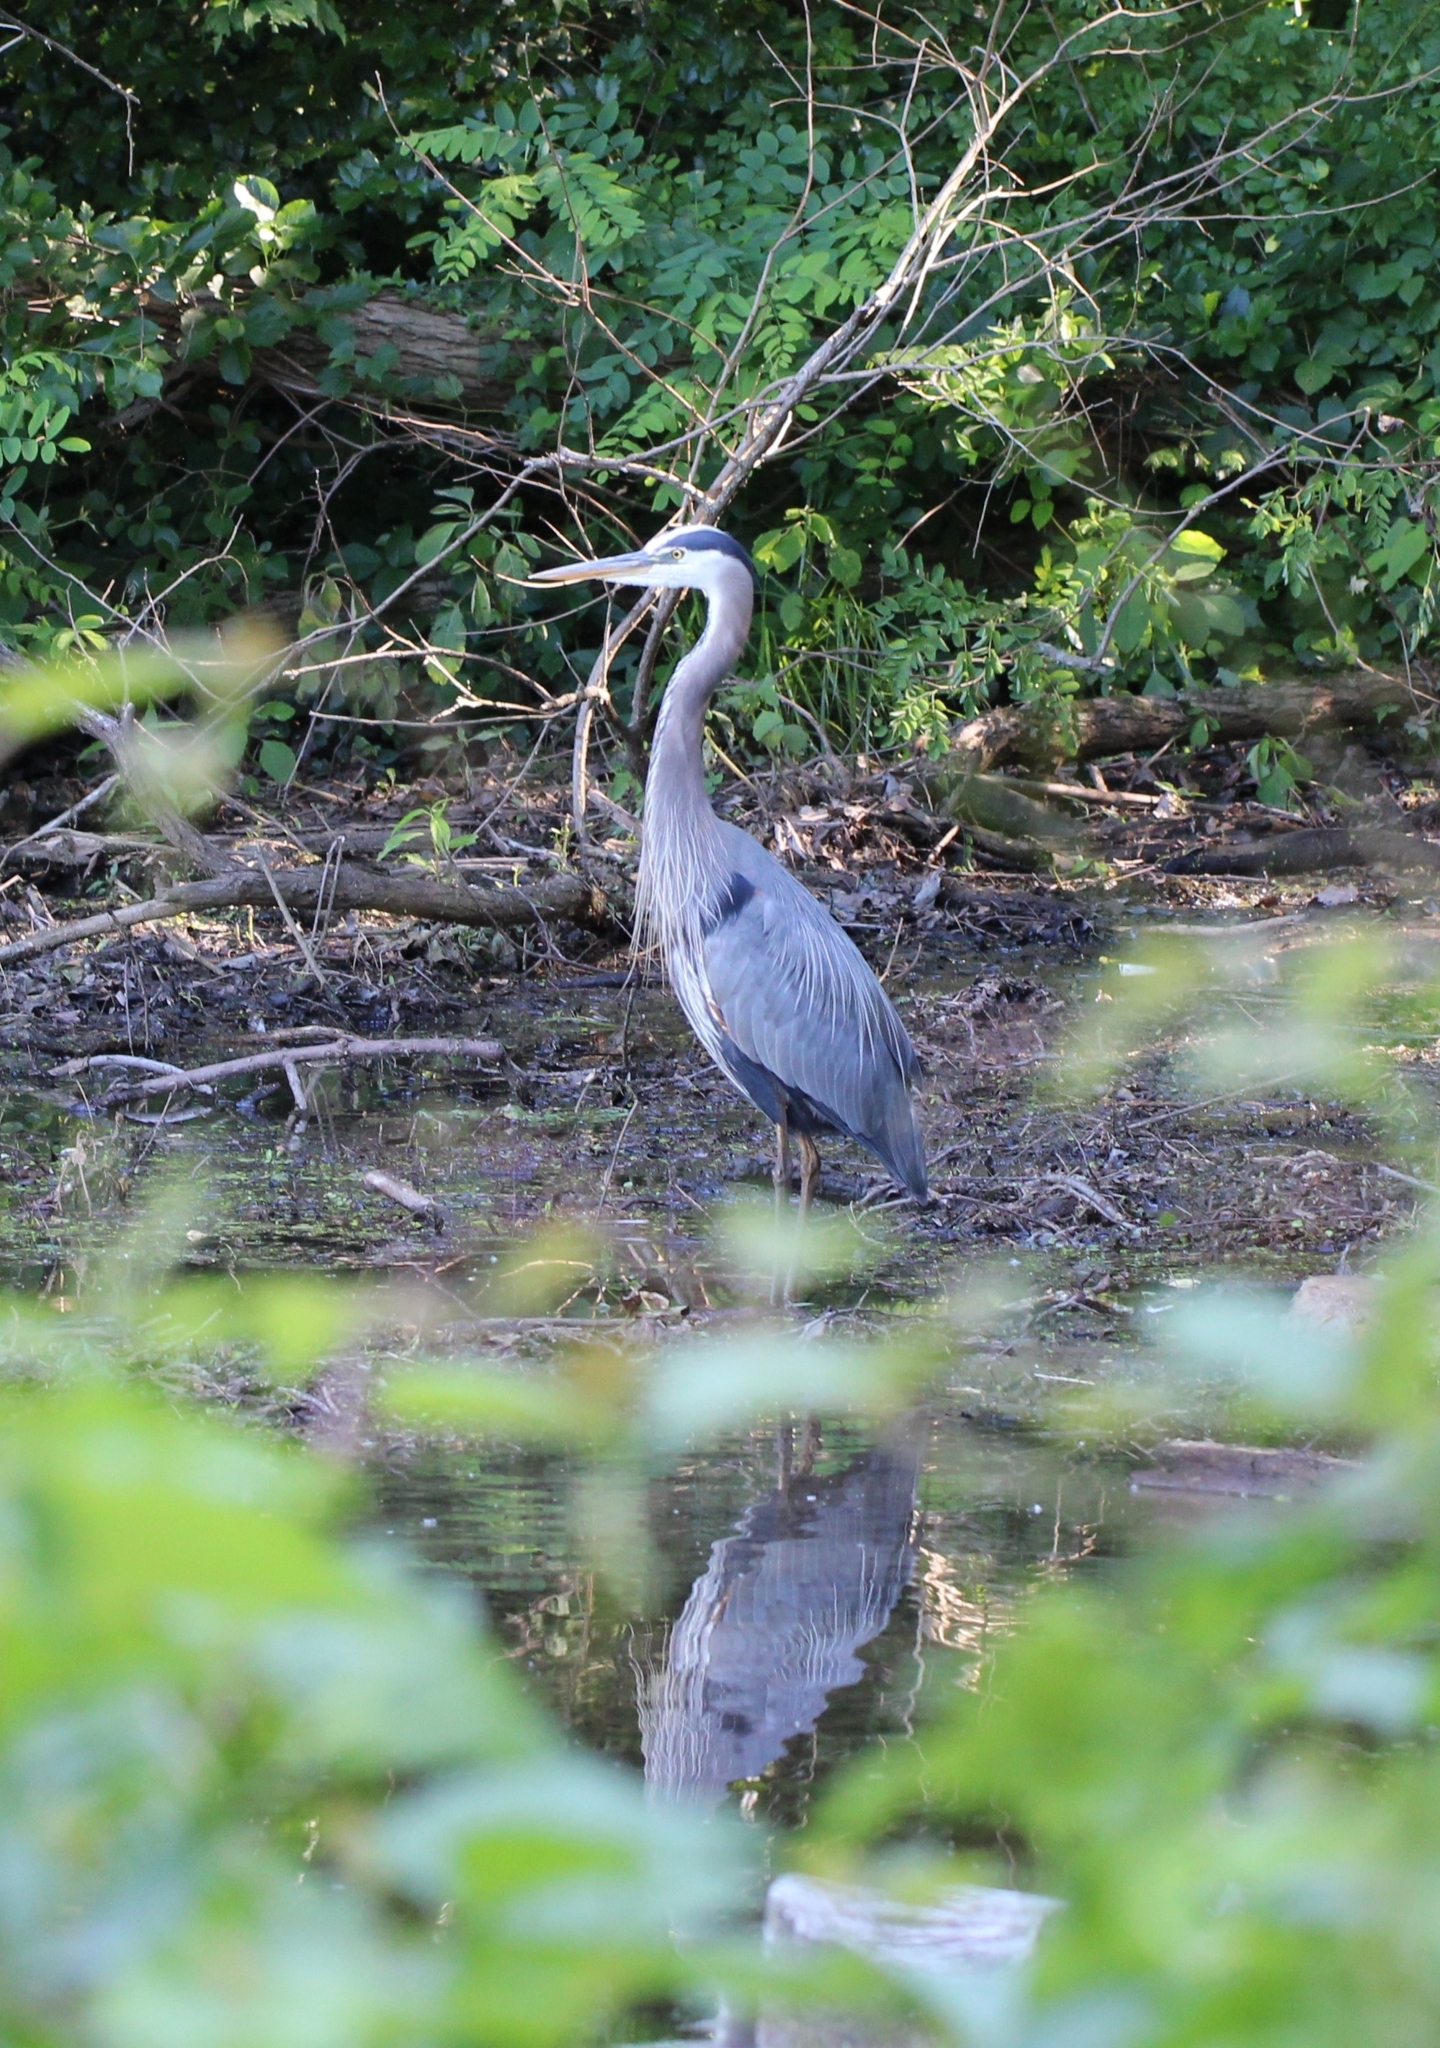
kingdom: Animalia
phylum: Chordata
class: Aves
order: Pelecaniformes
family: Ardeidae
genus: Ardea
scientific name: Ardea herodias
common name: Great blue heron
